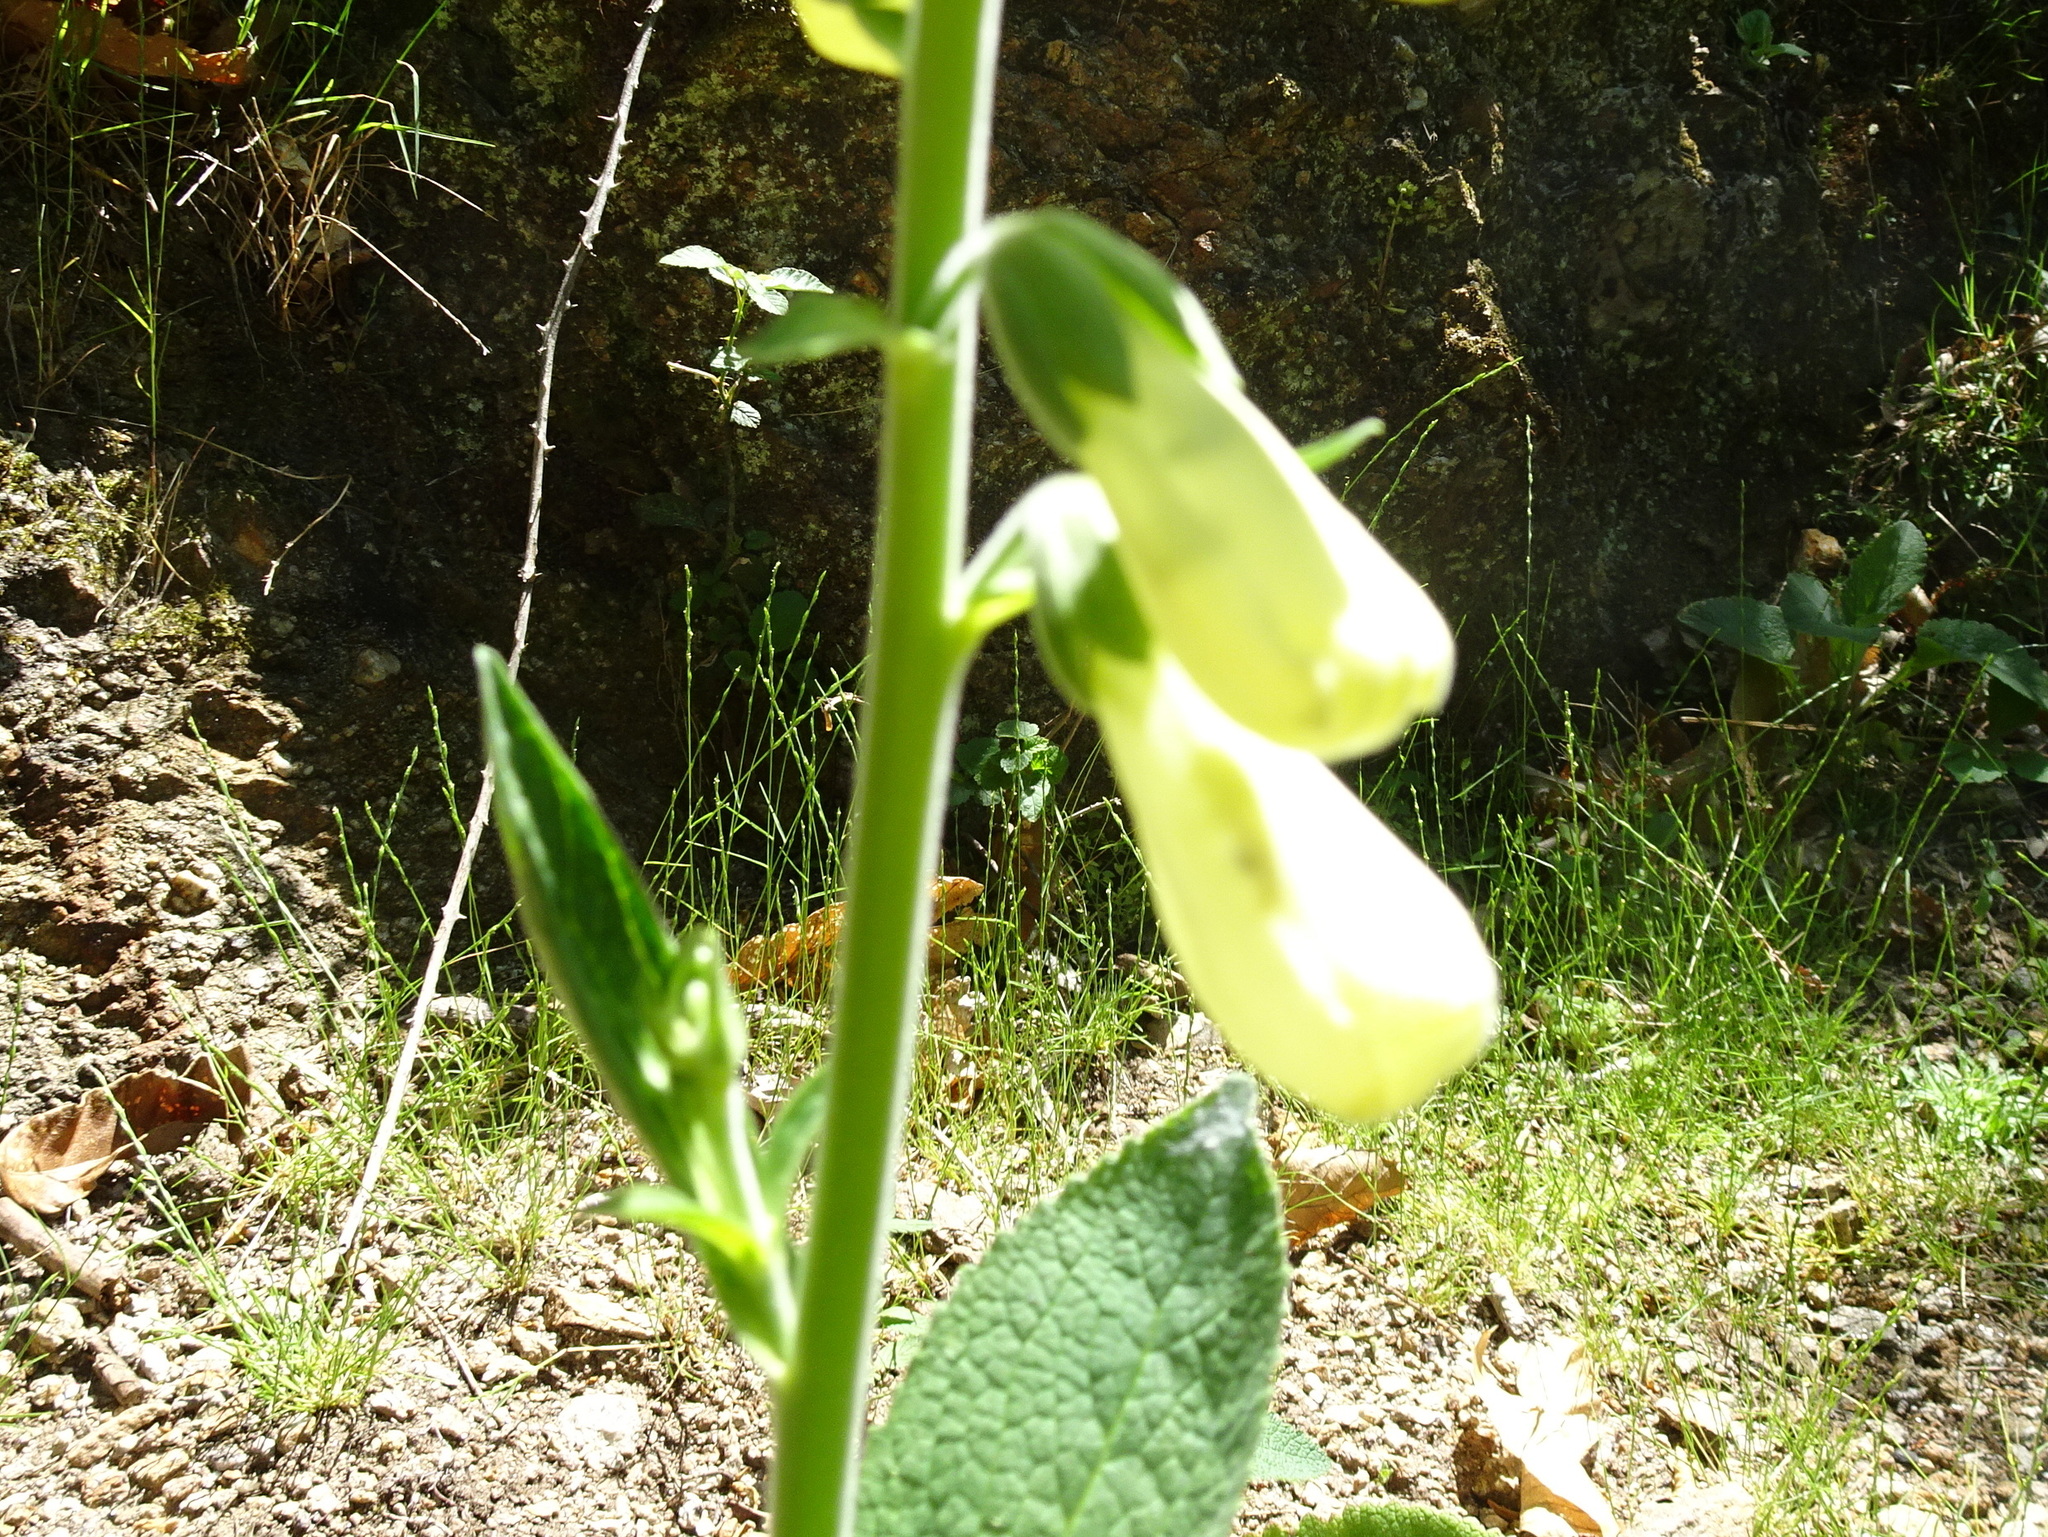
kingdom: Plantae
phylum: Tracheophyta
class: Magnoliopsida
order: Lamiales
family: Plantaginaceae
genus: Digitalis
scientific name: Digitalis purpurea
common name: Foxglove
